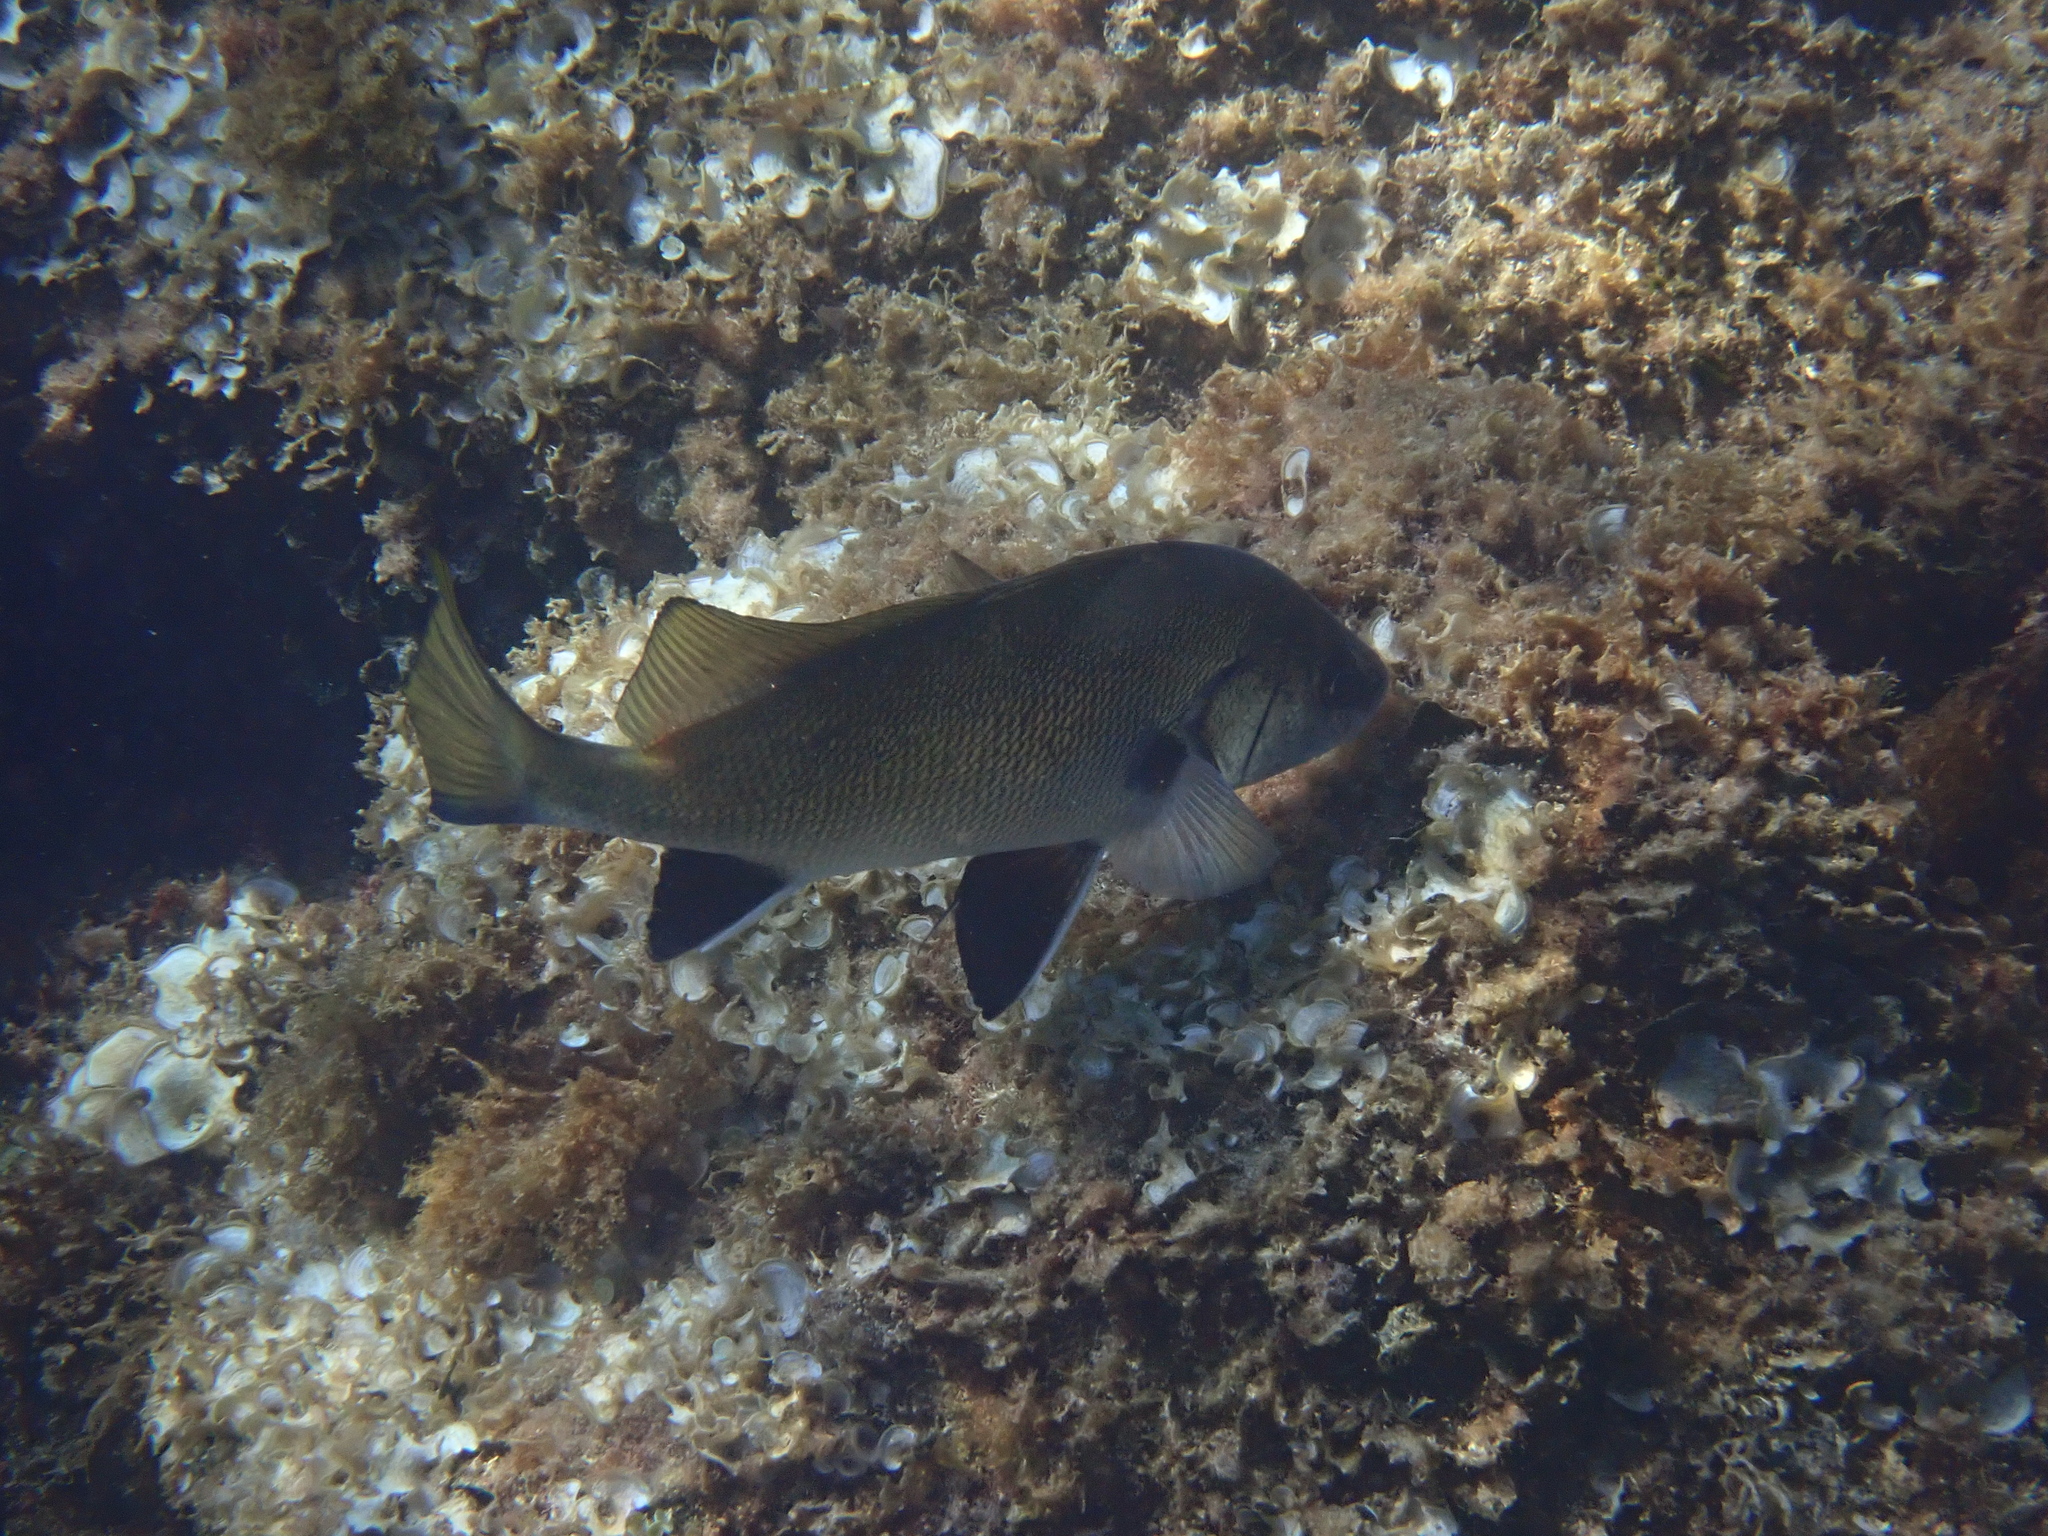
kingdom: Animalia
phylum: Chordata
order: Perciformes
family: Sciaenidae
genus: Sciaena
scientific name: Sciaena umbra
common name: Brown meagre
